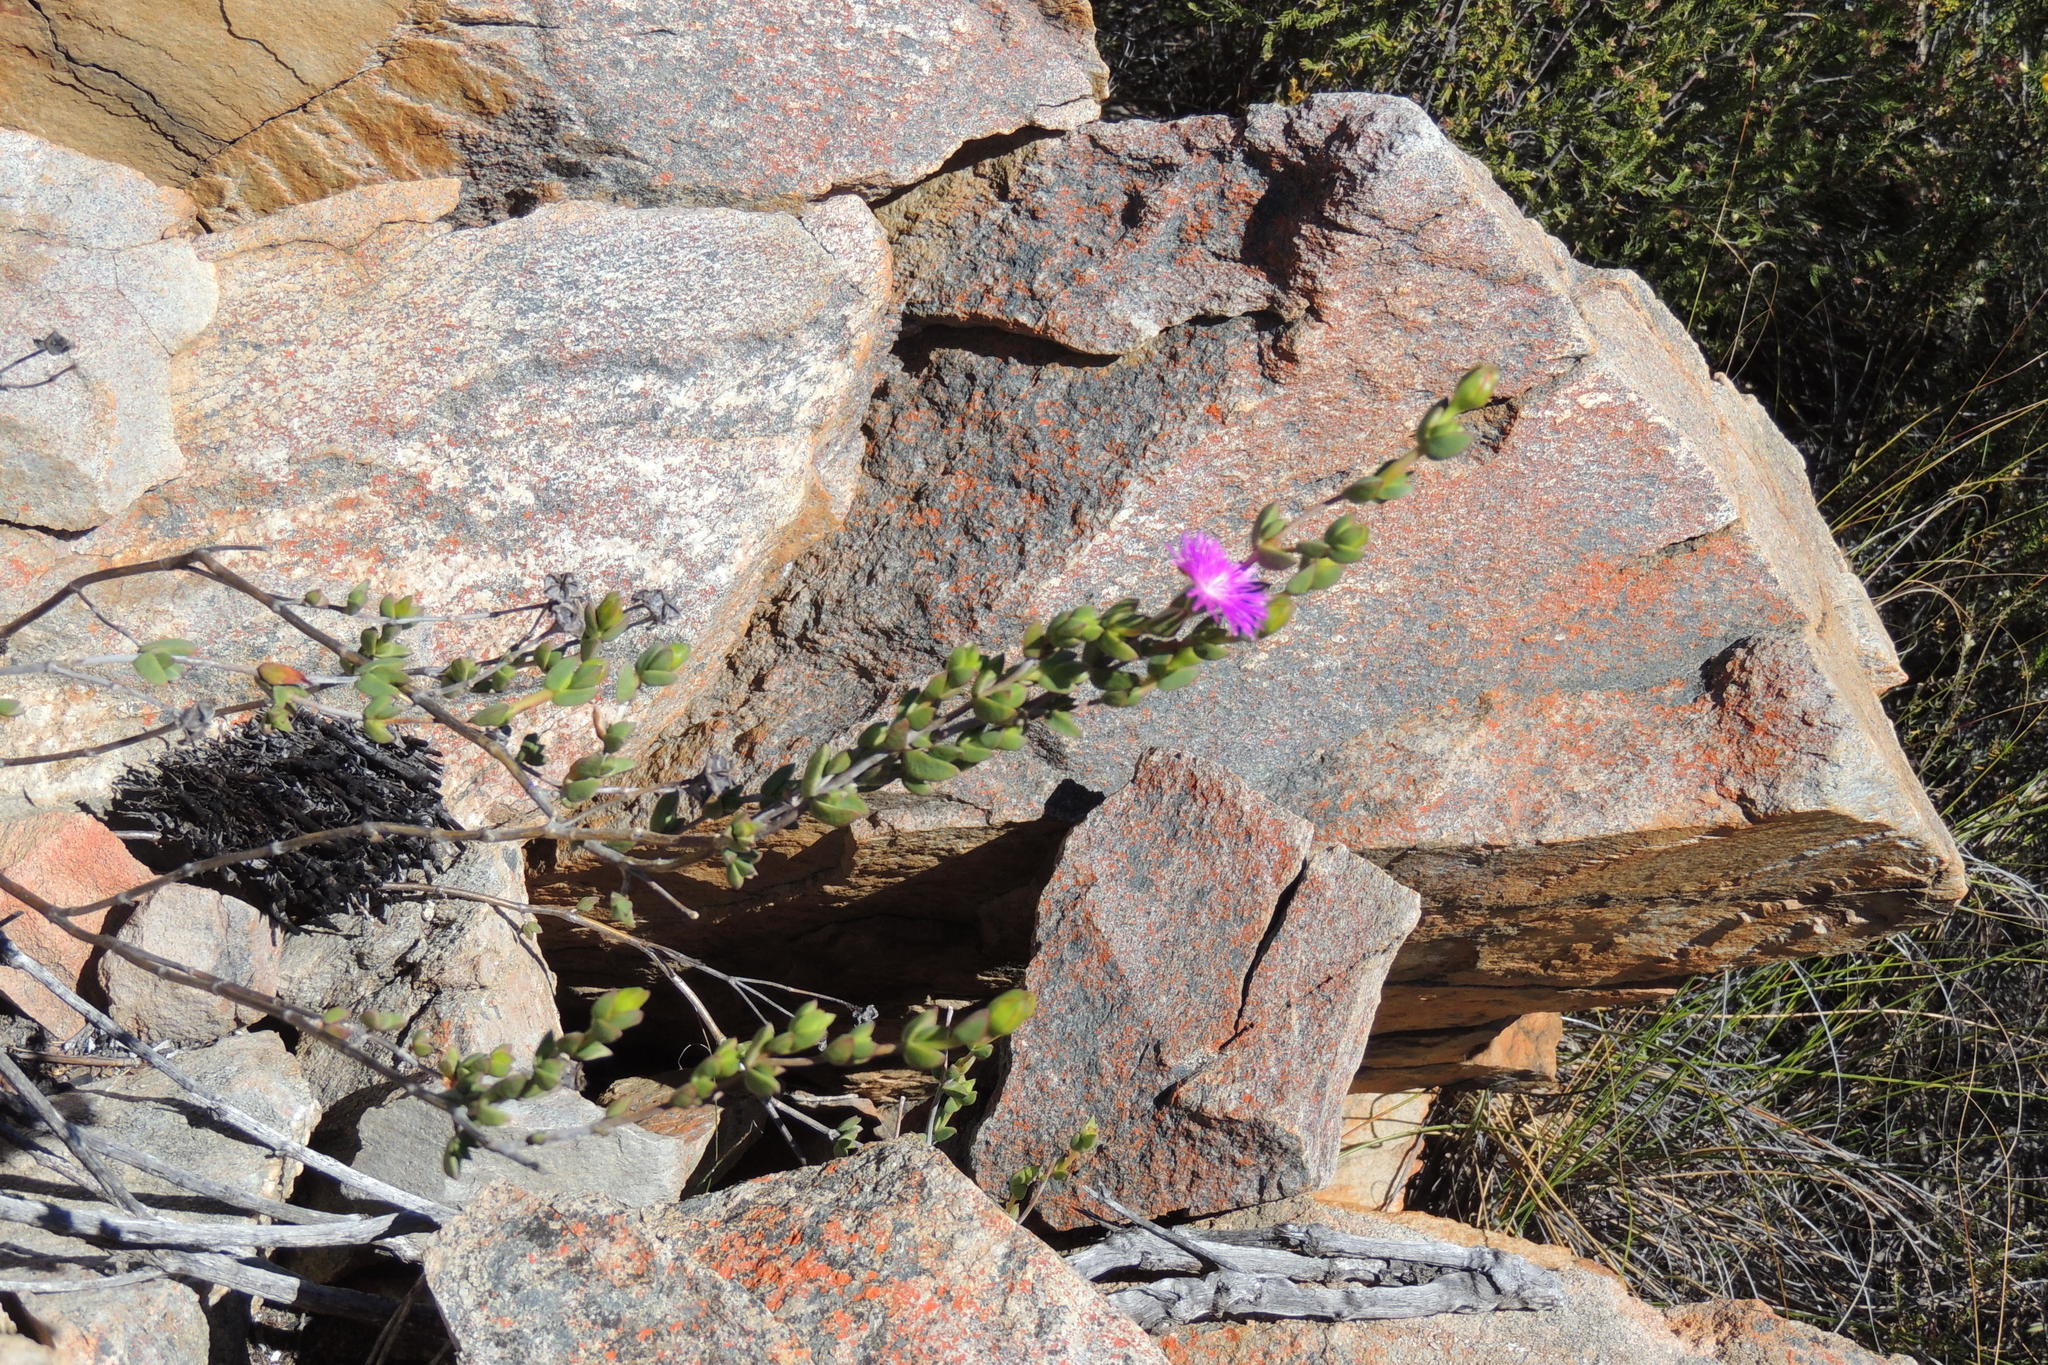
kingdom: Plantae
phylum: Tracheophyta
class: Magnoliopsida
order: Caryophyllales
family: Aizoaceae
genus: Erepsia
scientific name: Erepsia polita
